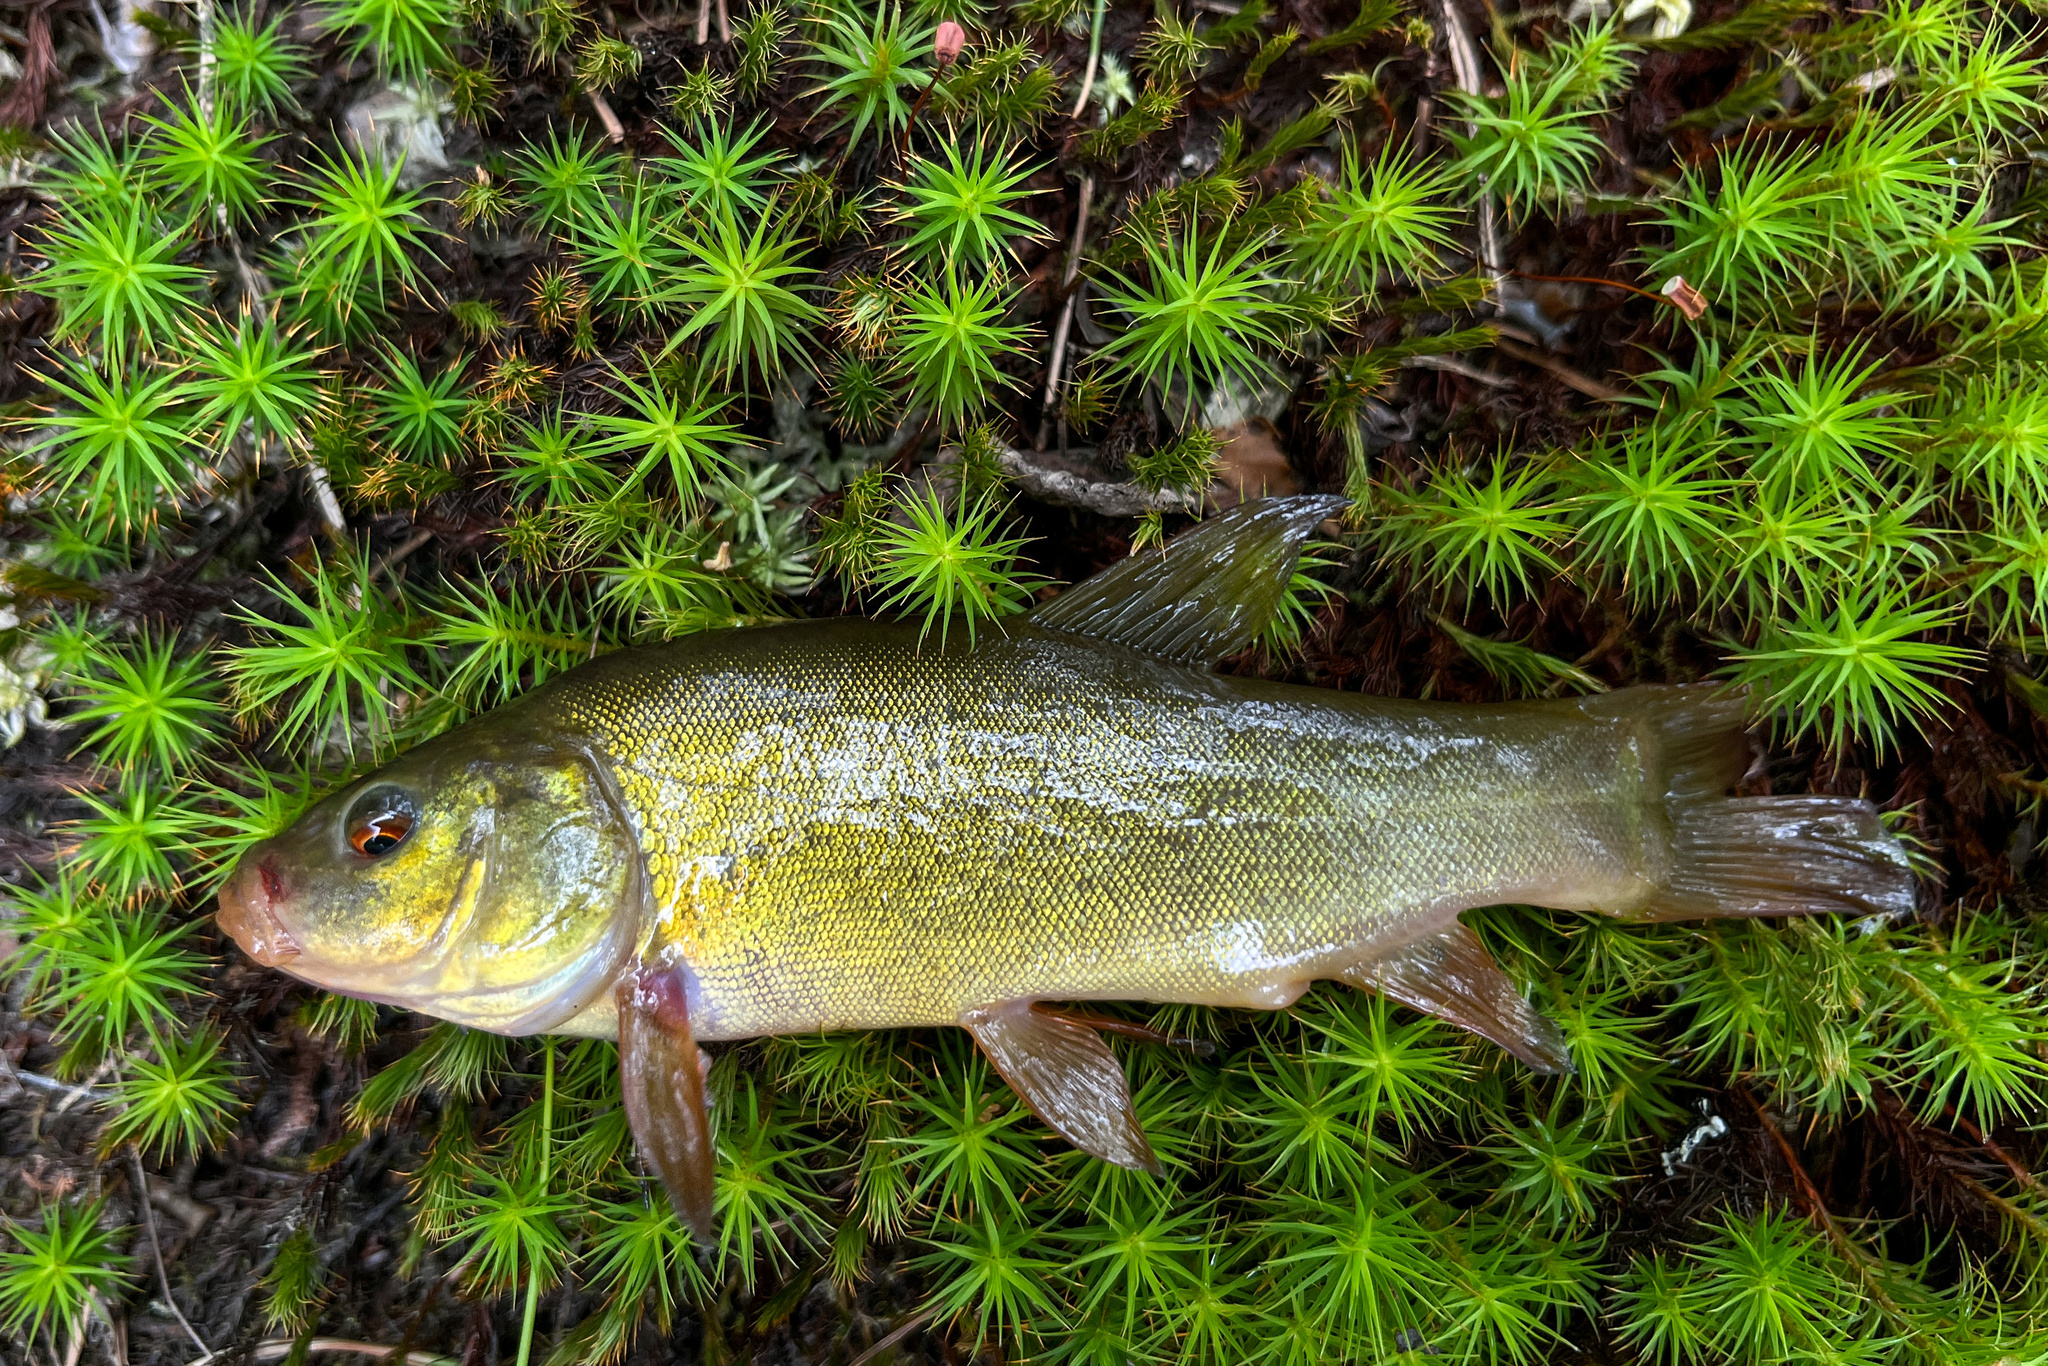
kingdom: Animalia
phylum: Chordata
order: Cypriniformes
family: Cyprinidae
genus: Tinca
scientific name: Tinca tinca
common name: Tench
